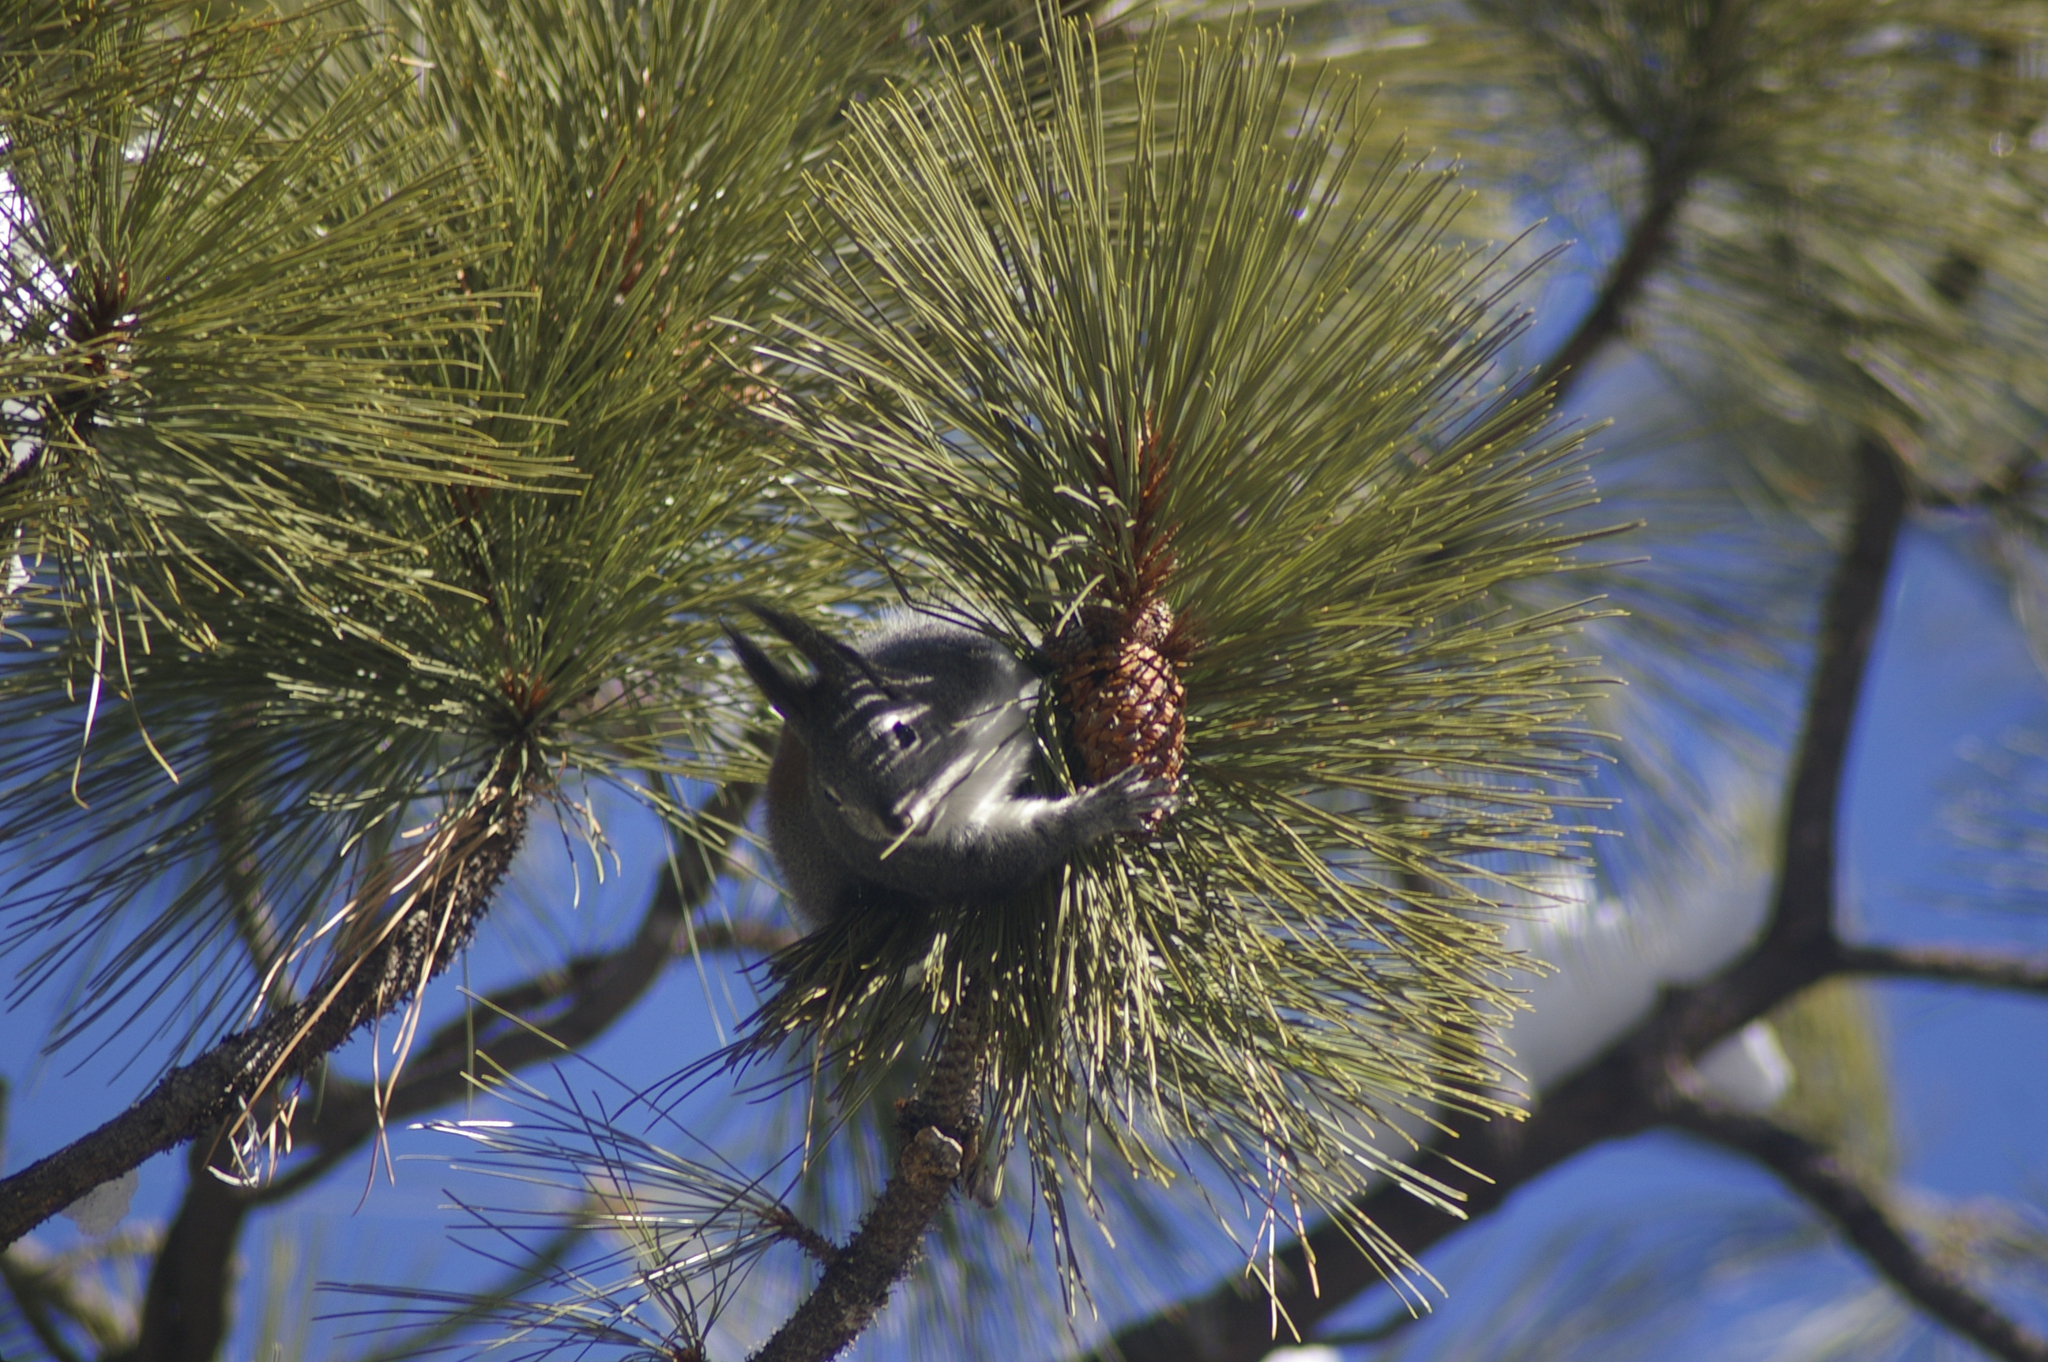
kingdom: Animalia
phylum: Chordata
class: Mammalia
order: Rodentia
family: Sciuridae
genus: Sciurus
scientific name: Sciurus aberti
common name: Abert's squirrel
